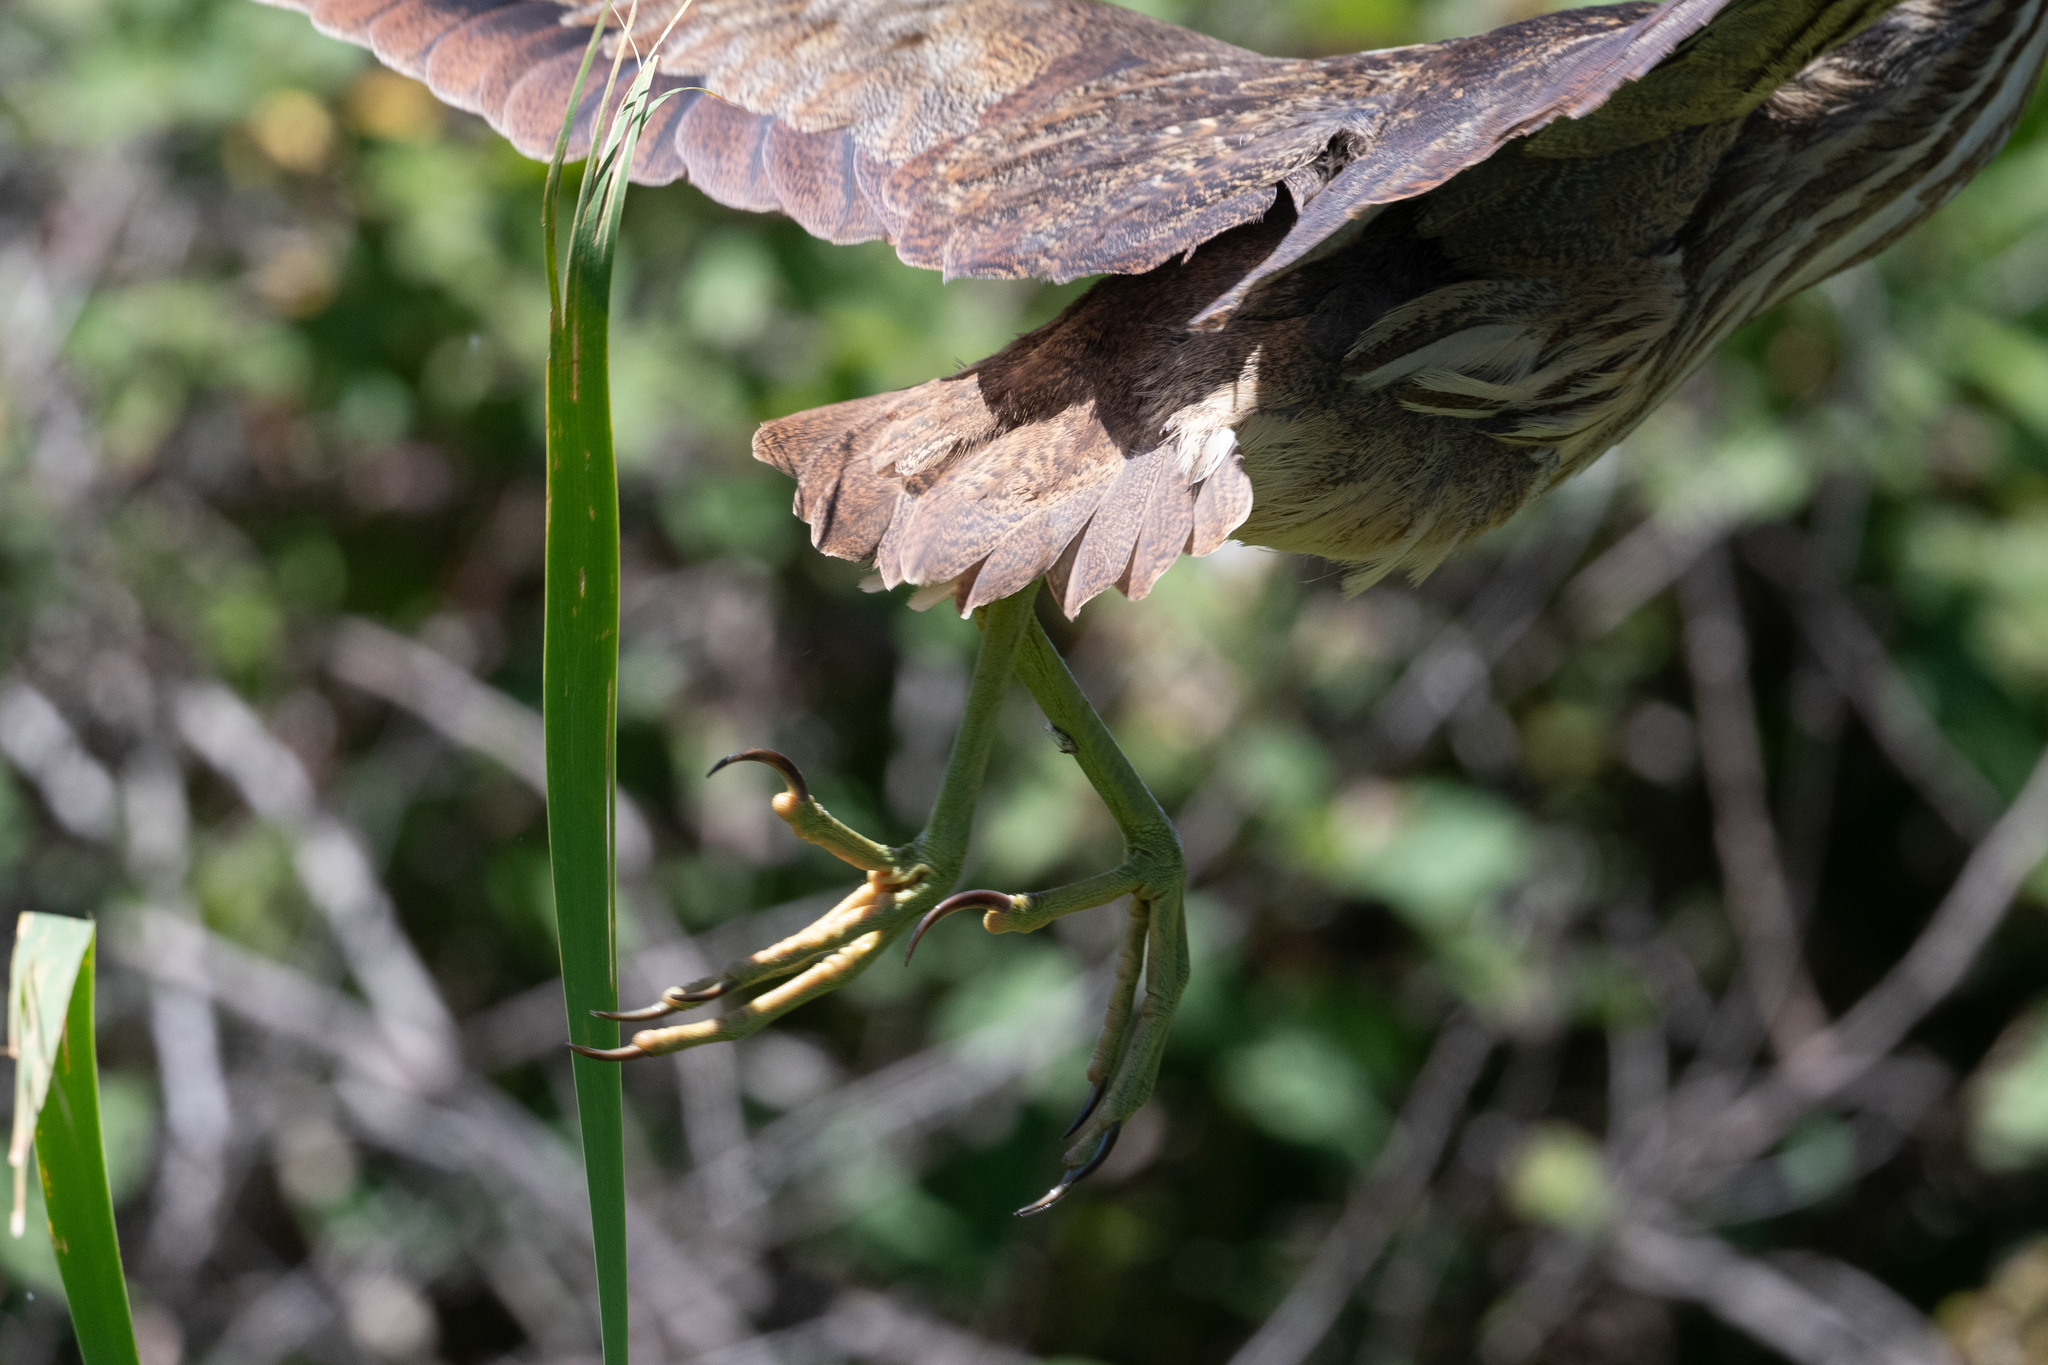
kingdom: Animalia
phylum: Chordata
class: Aves
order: Pelecaniformes
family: Ardeidae
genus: Botaurus
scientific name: Botaurus lentiginosus
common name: American bittern
